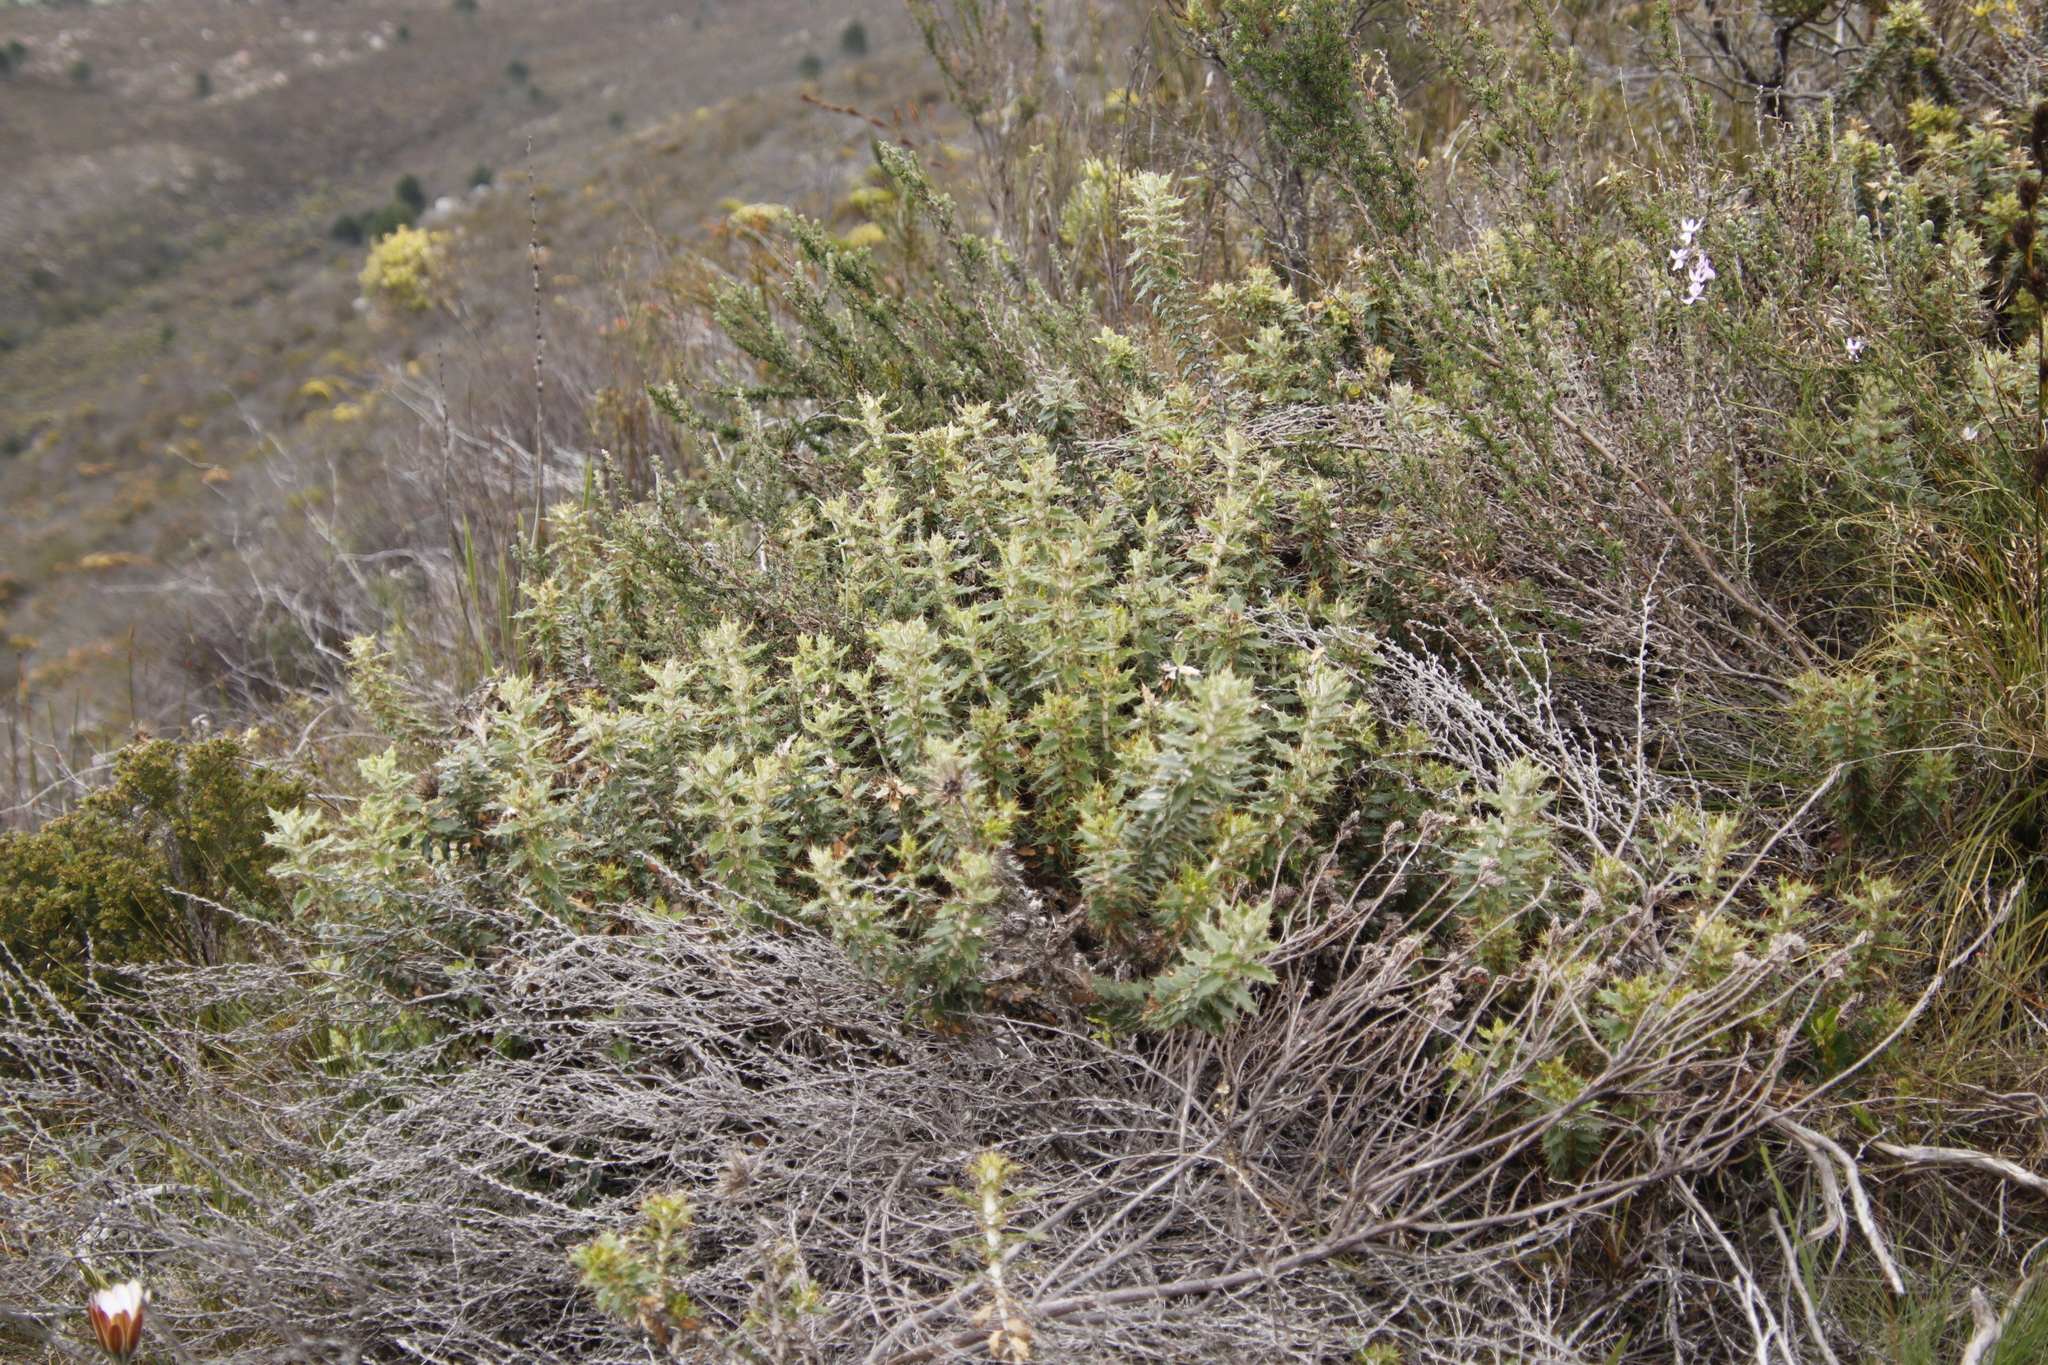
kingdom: Plantae
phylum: Tracheophyta
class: Magnoliopsida
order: Asterales
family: Asteraceae
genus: Berkheya
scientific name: Berkheya barbata
